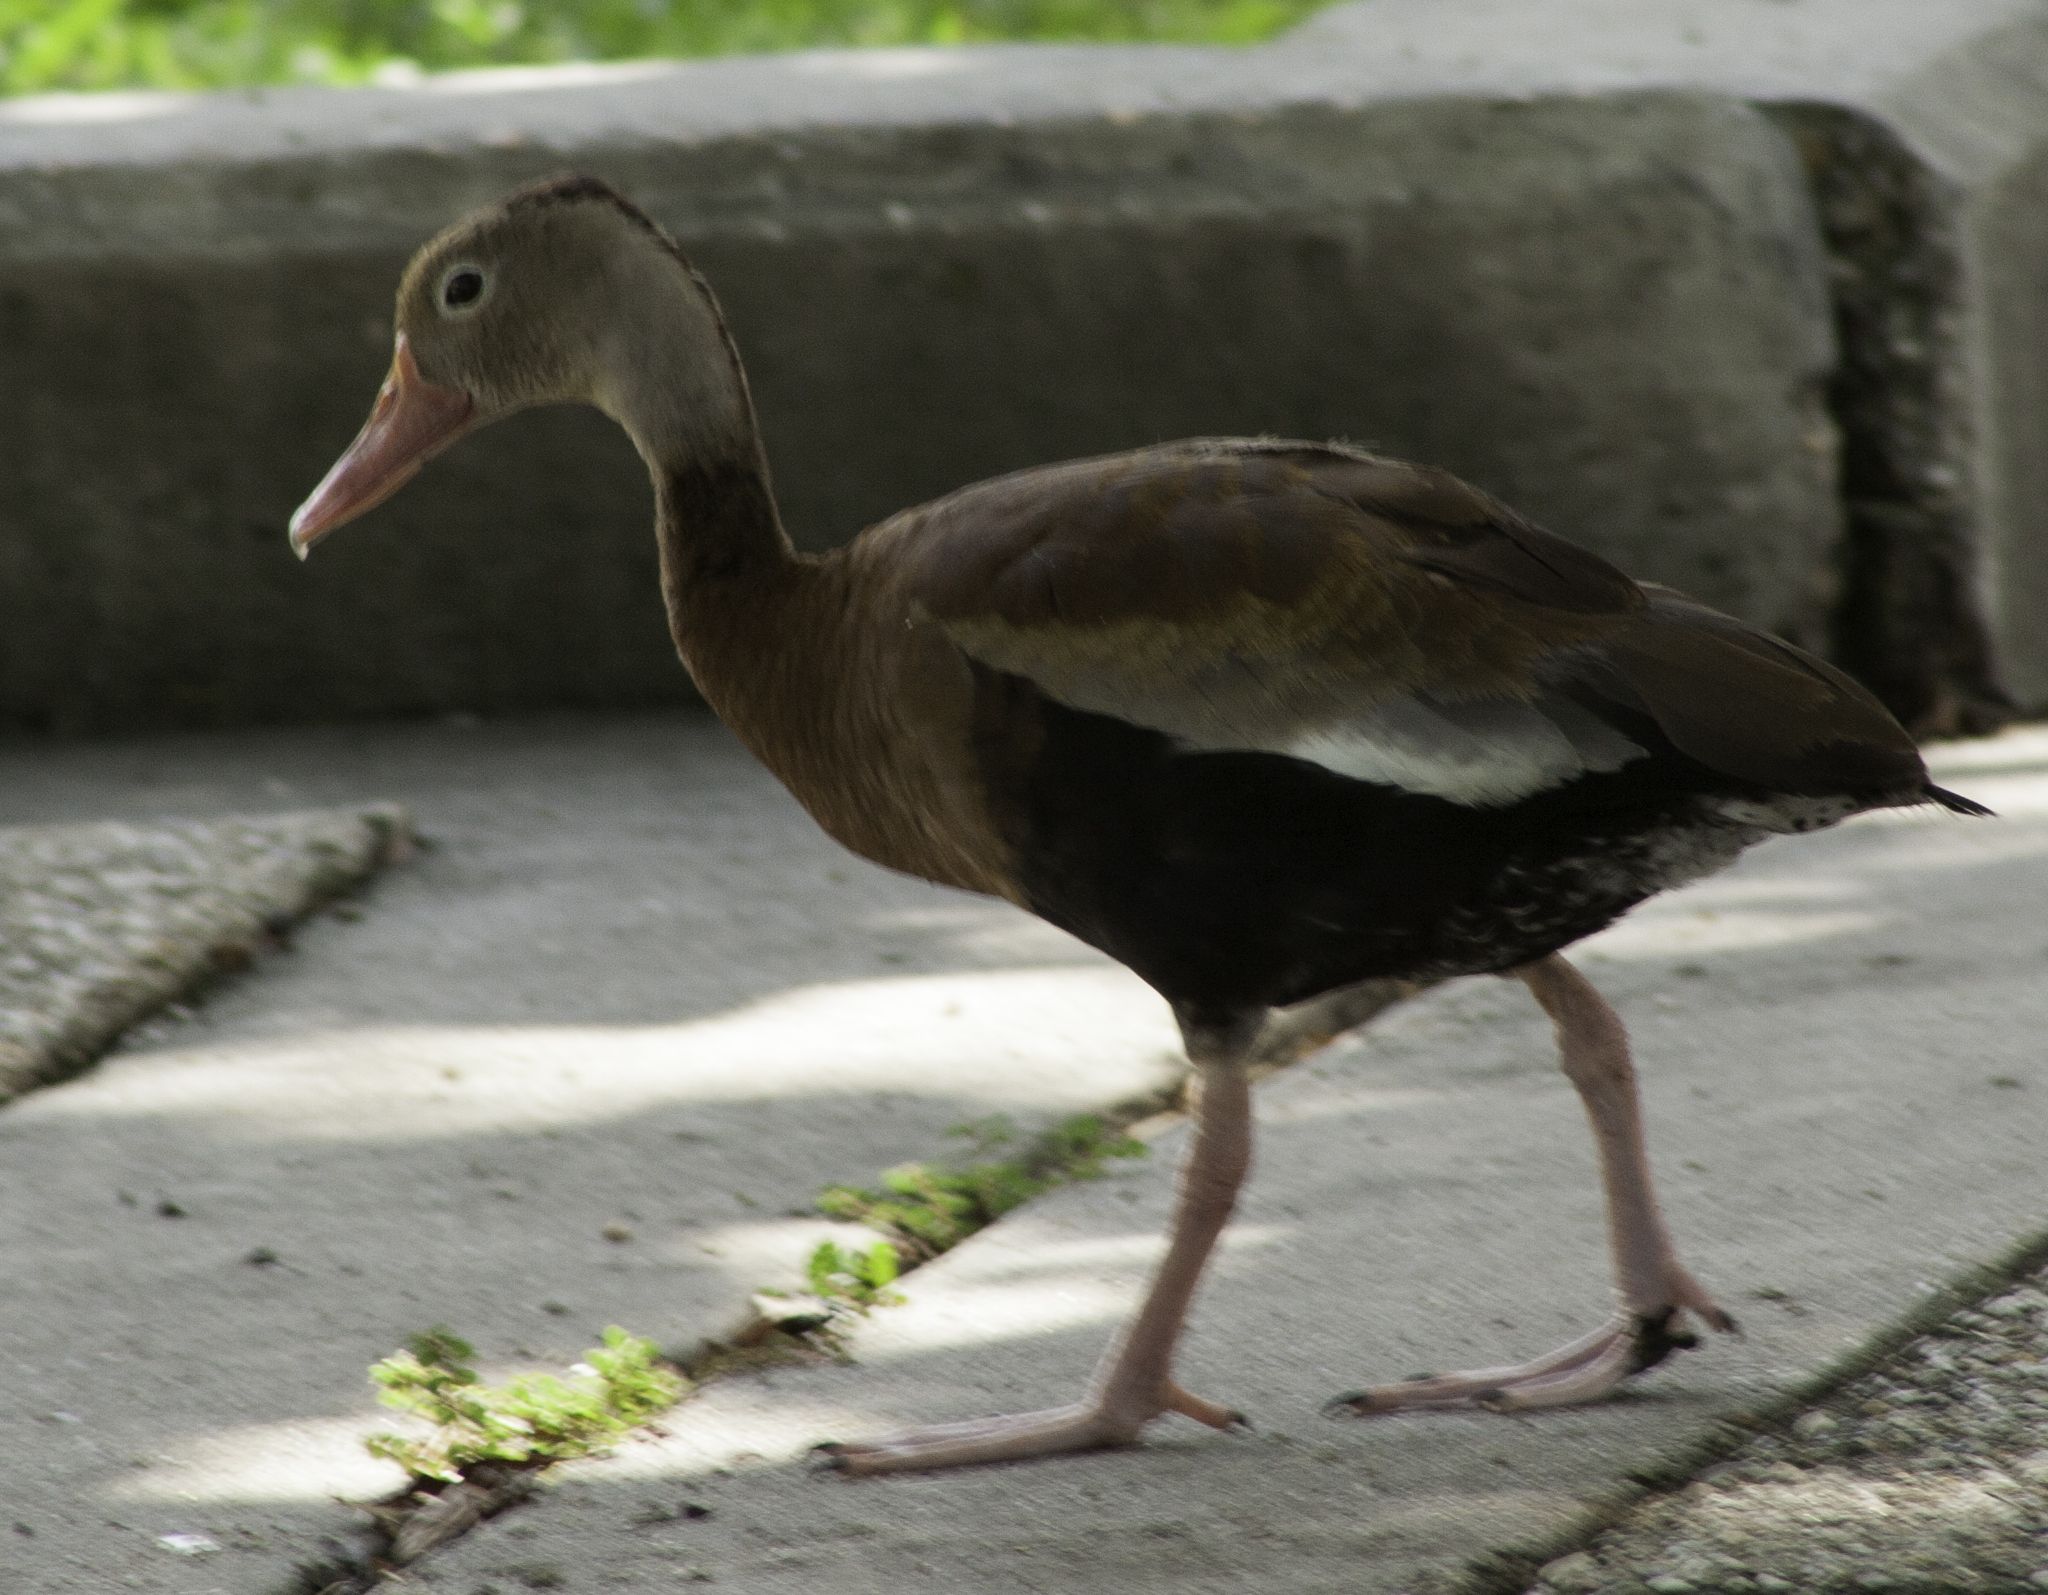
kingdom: Animalia
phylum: Chordata
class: Aves
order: Anseriformes
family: Anatidae
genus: Dendrocygna
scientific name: Dendrocygna autumnalis
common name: Black-bellied whistling duck
